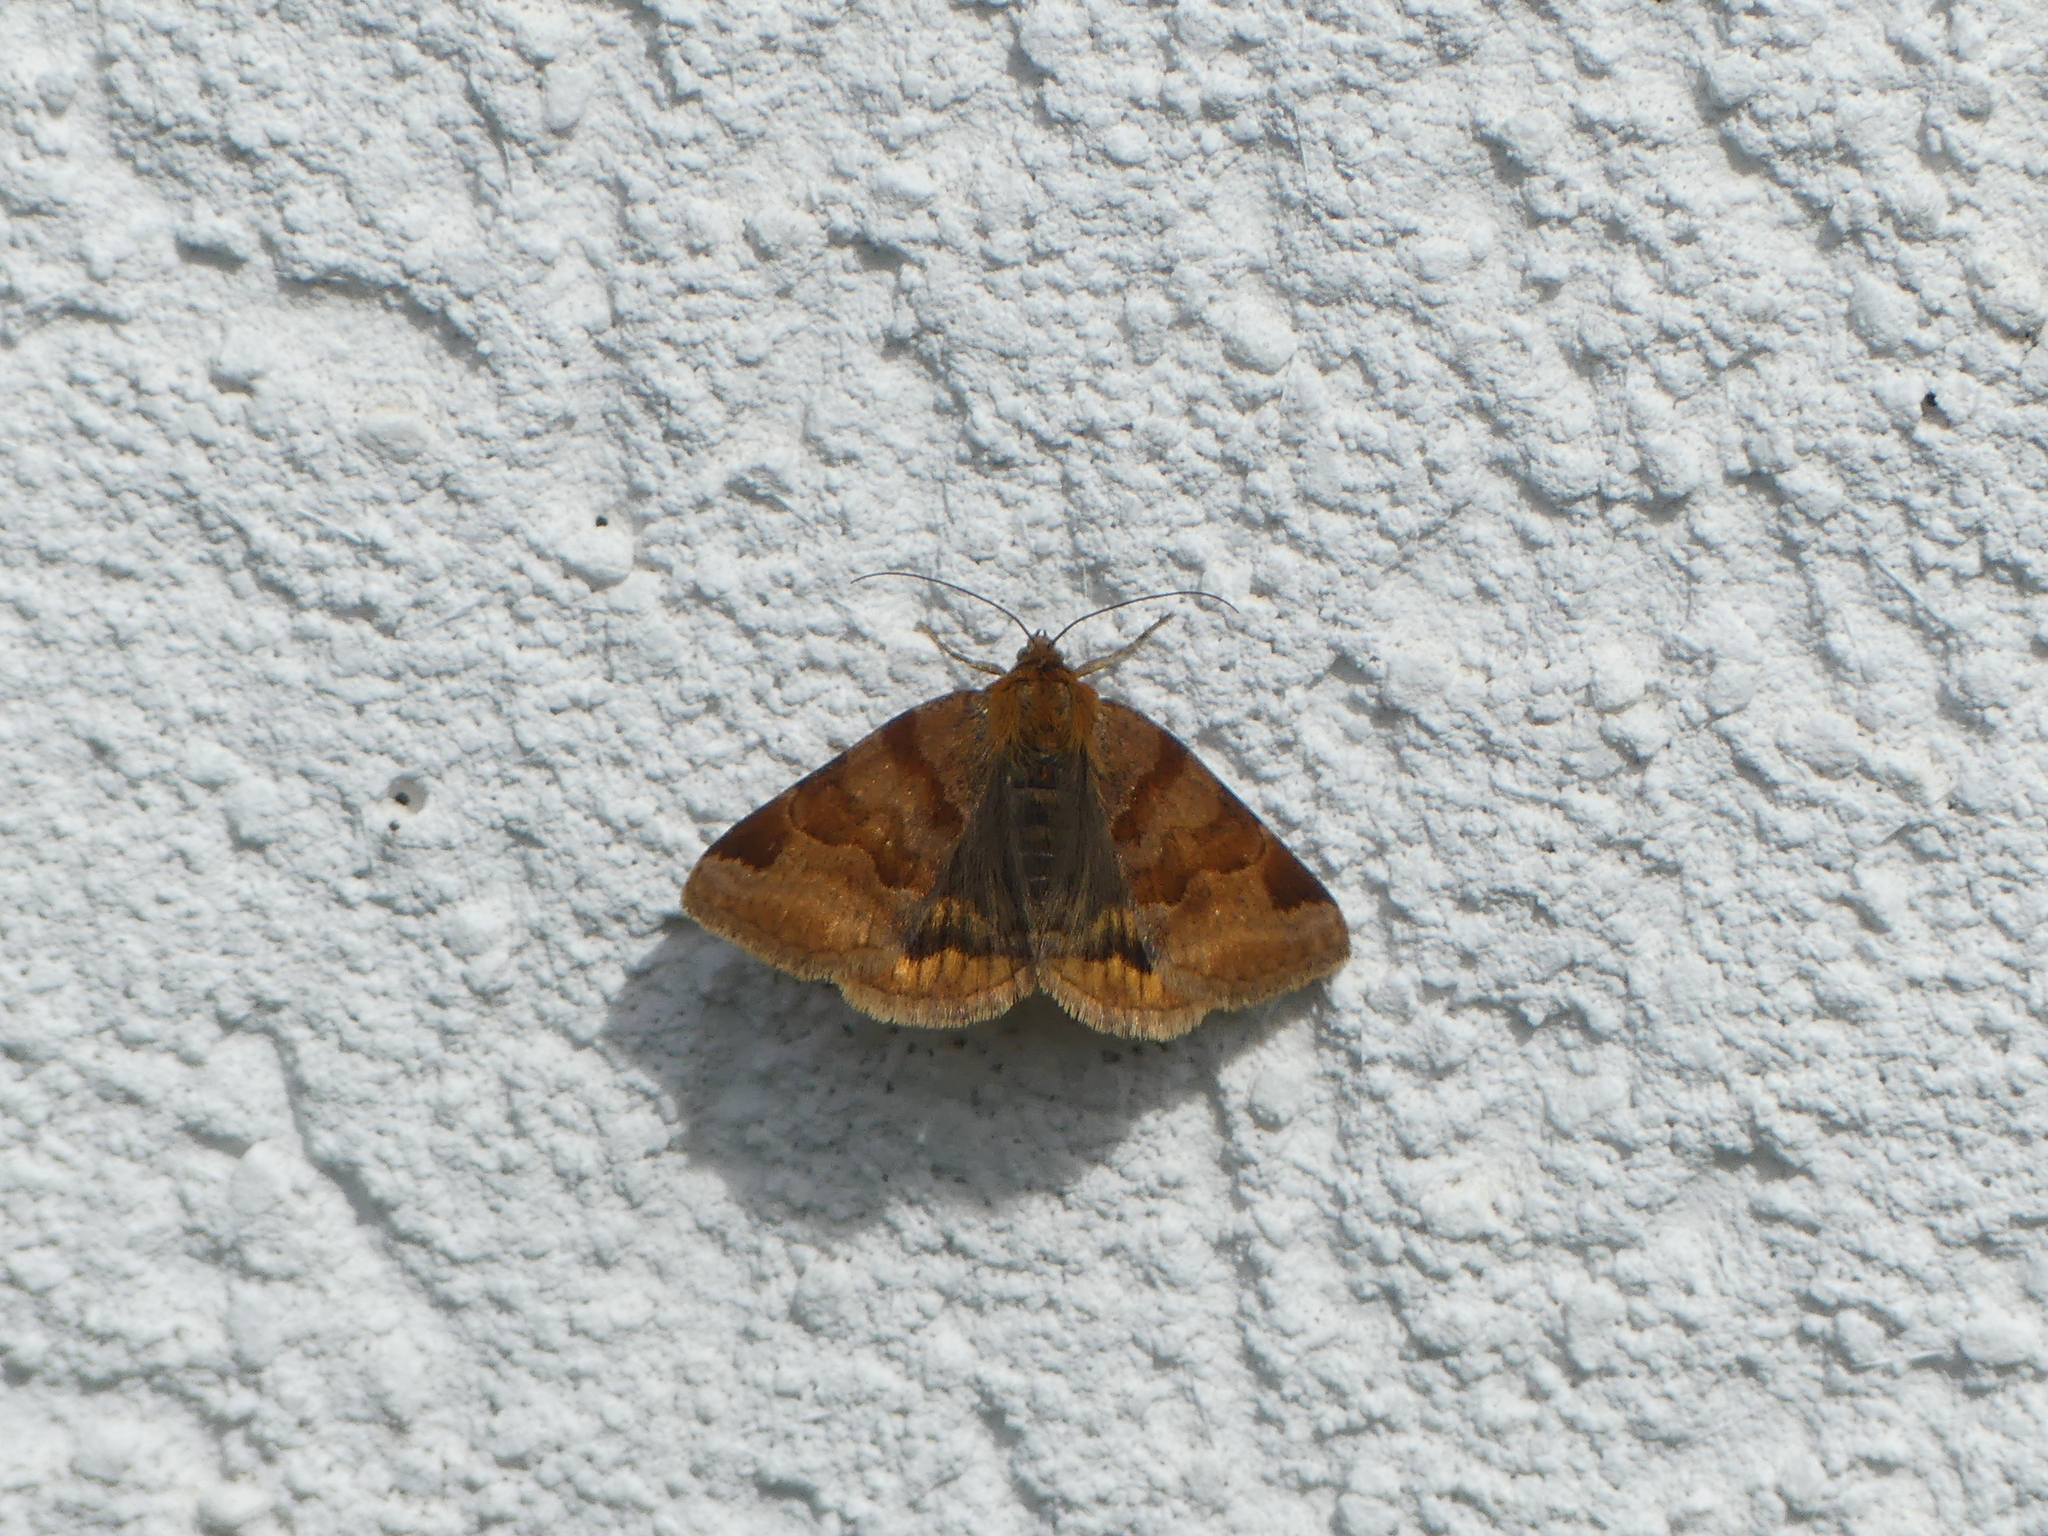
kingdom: Animalia
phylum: Arthropoda
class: Insecta
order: Lepidoptera
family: Erebidae
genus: Euclidia
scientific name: Euclidia glyphica
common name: Burnet companion
